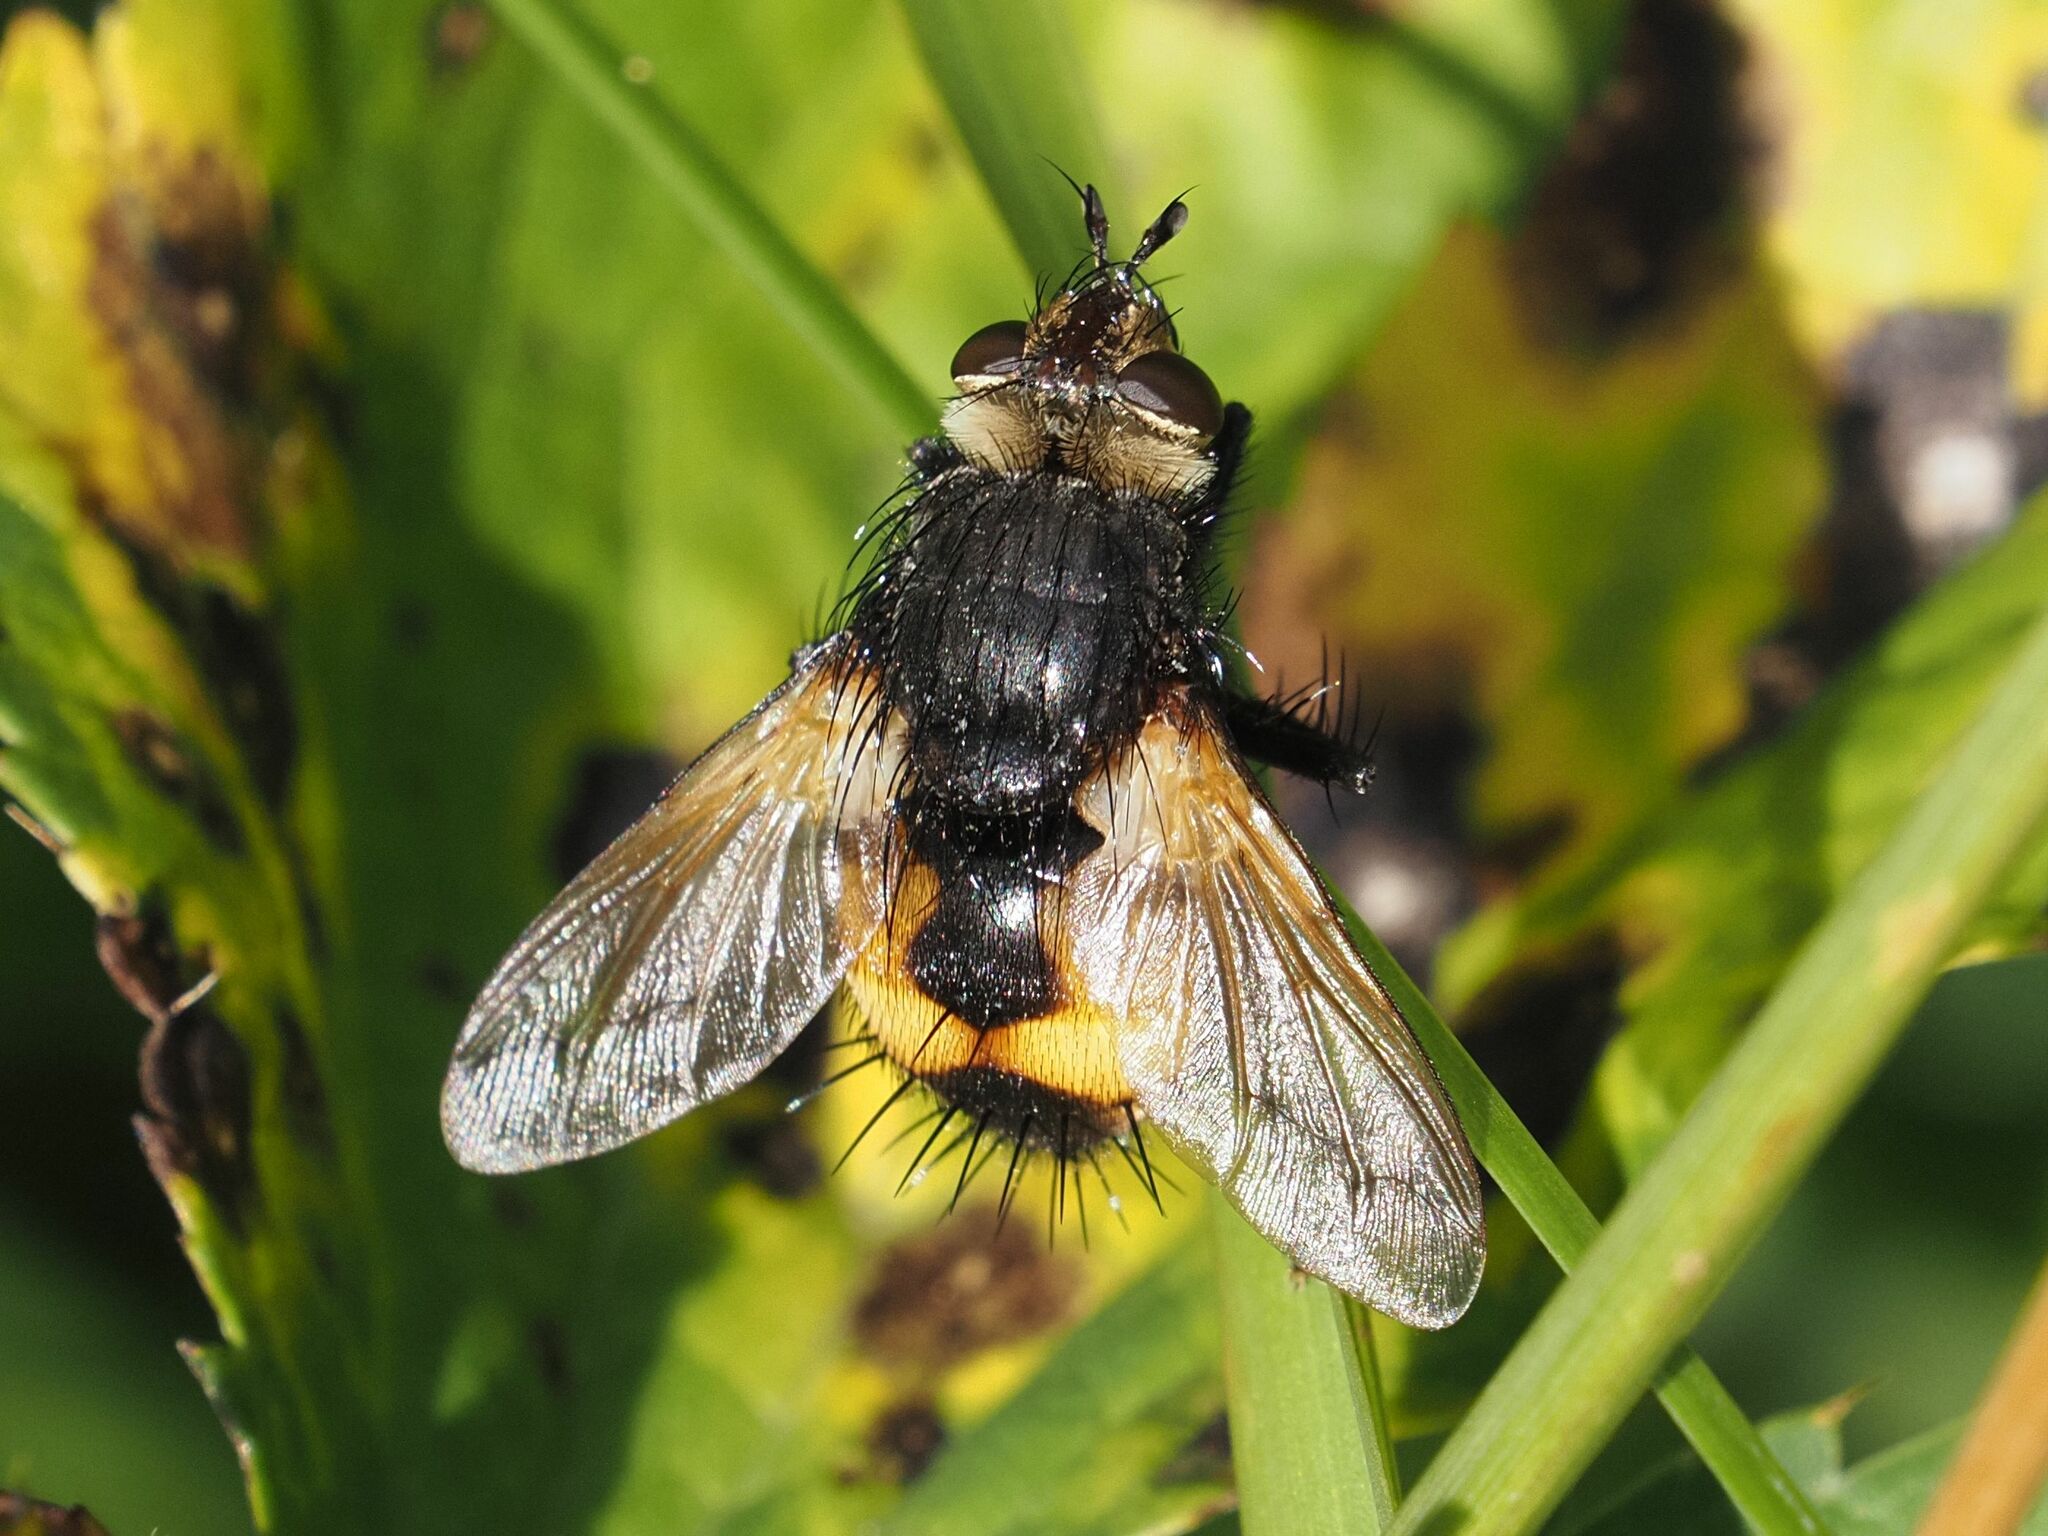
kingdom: Animalia
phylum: Arthropoda
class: Insecta
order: Diptera
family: Tachinidae
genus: Nowickia
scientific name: Nowickia ferox
